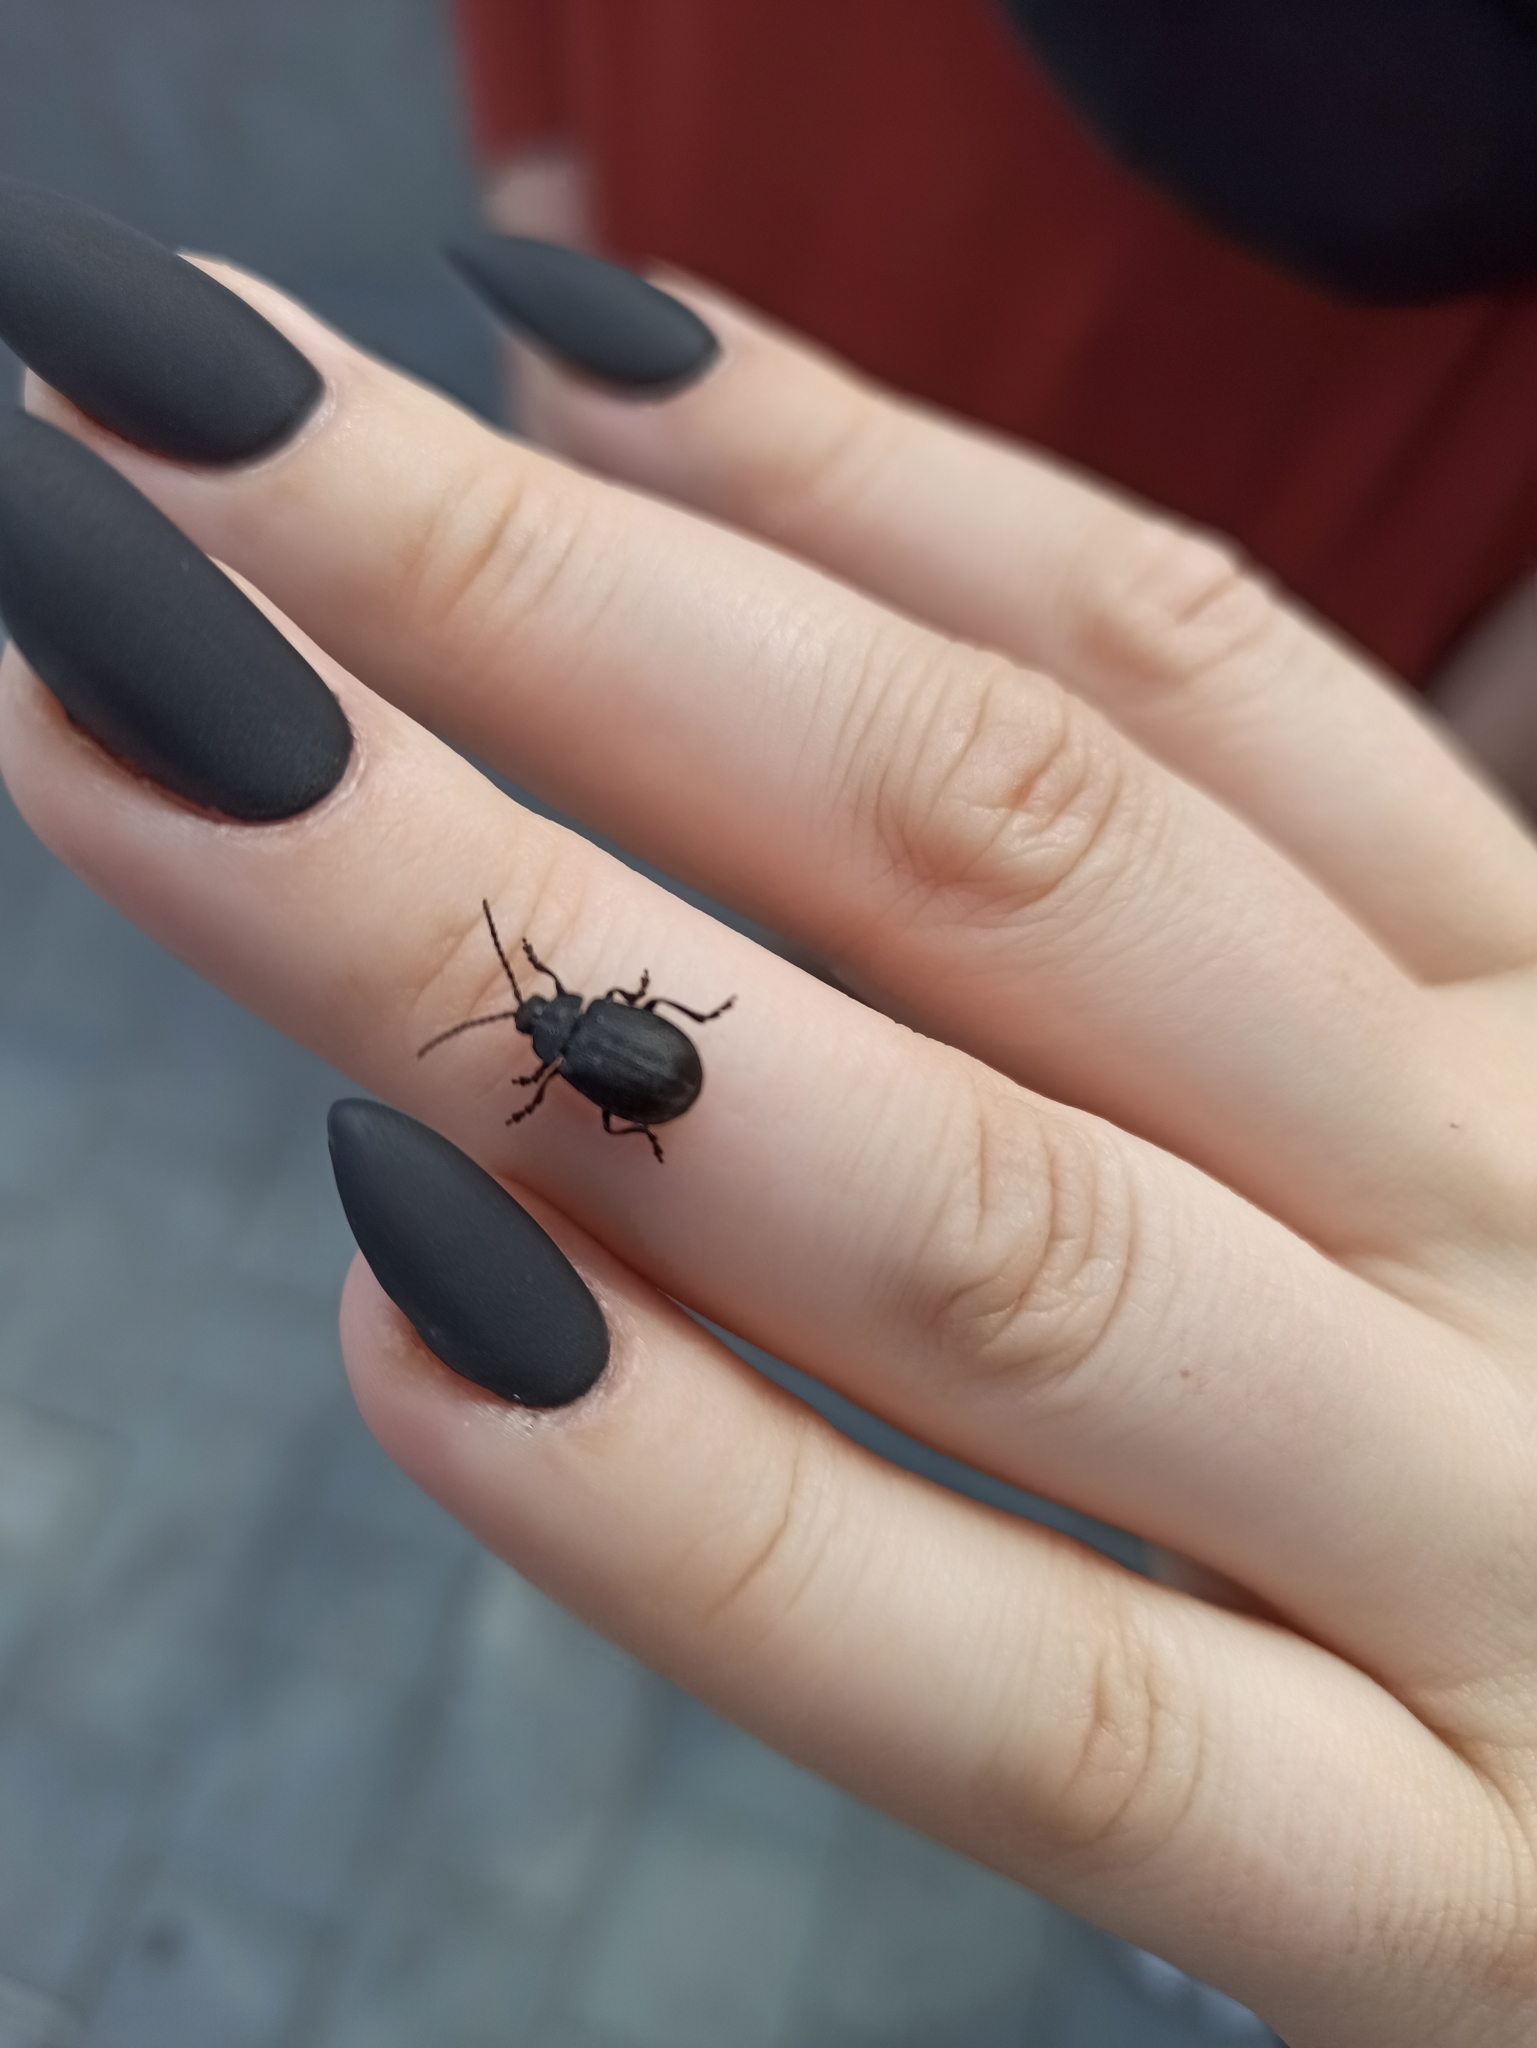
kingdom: Animalia
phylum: Arthropoda
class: Insecta
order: Coleoptera
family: Chrysomelidae
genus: Galeruca
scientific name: Galeruca tanaceti
